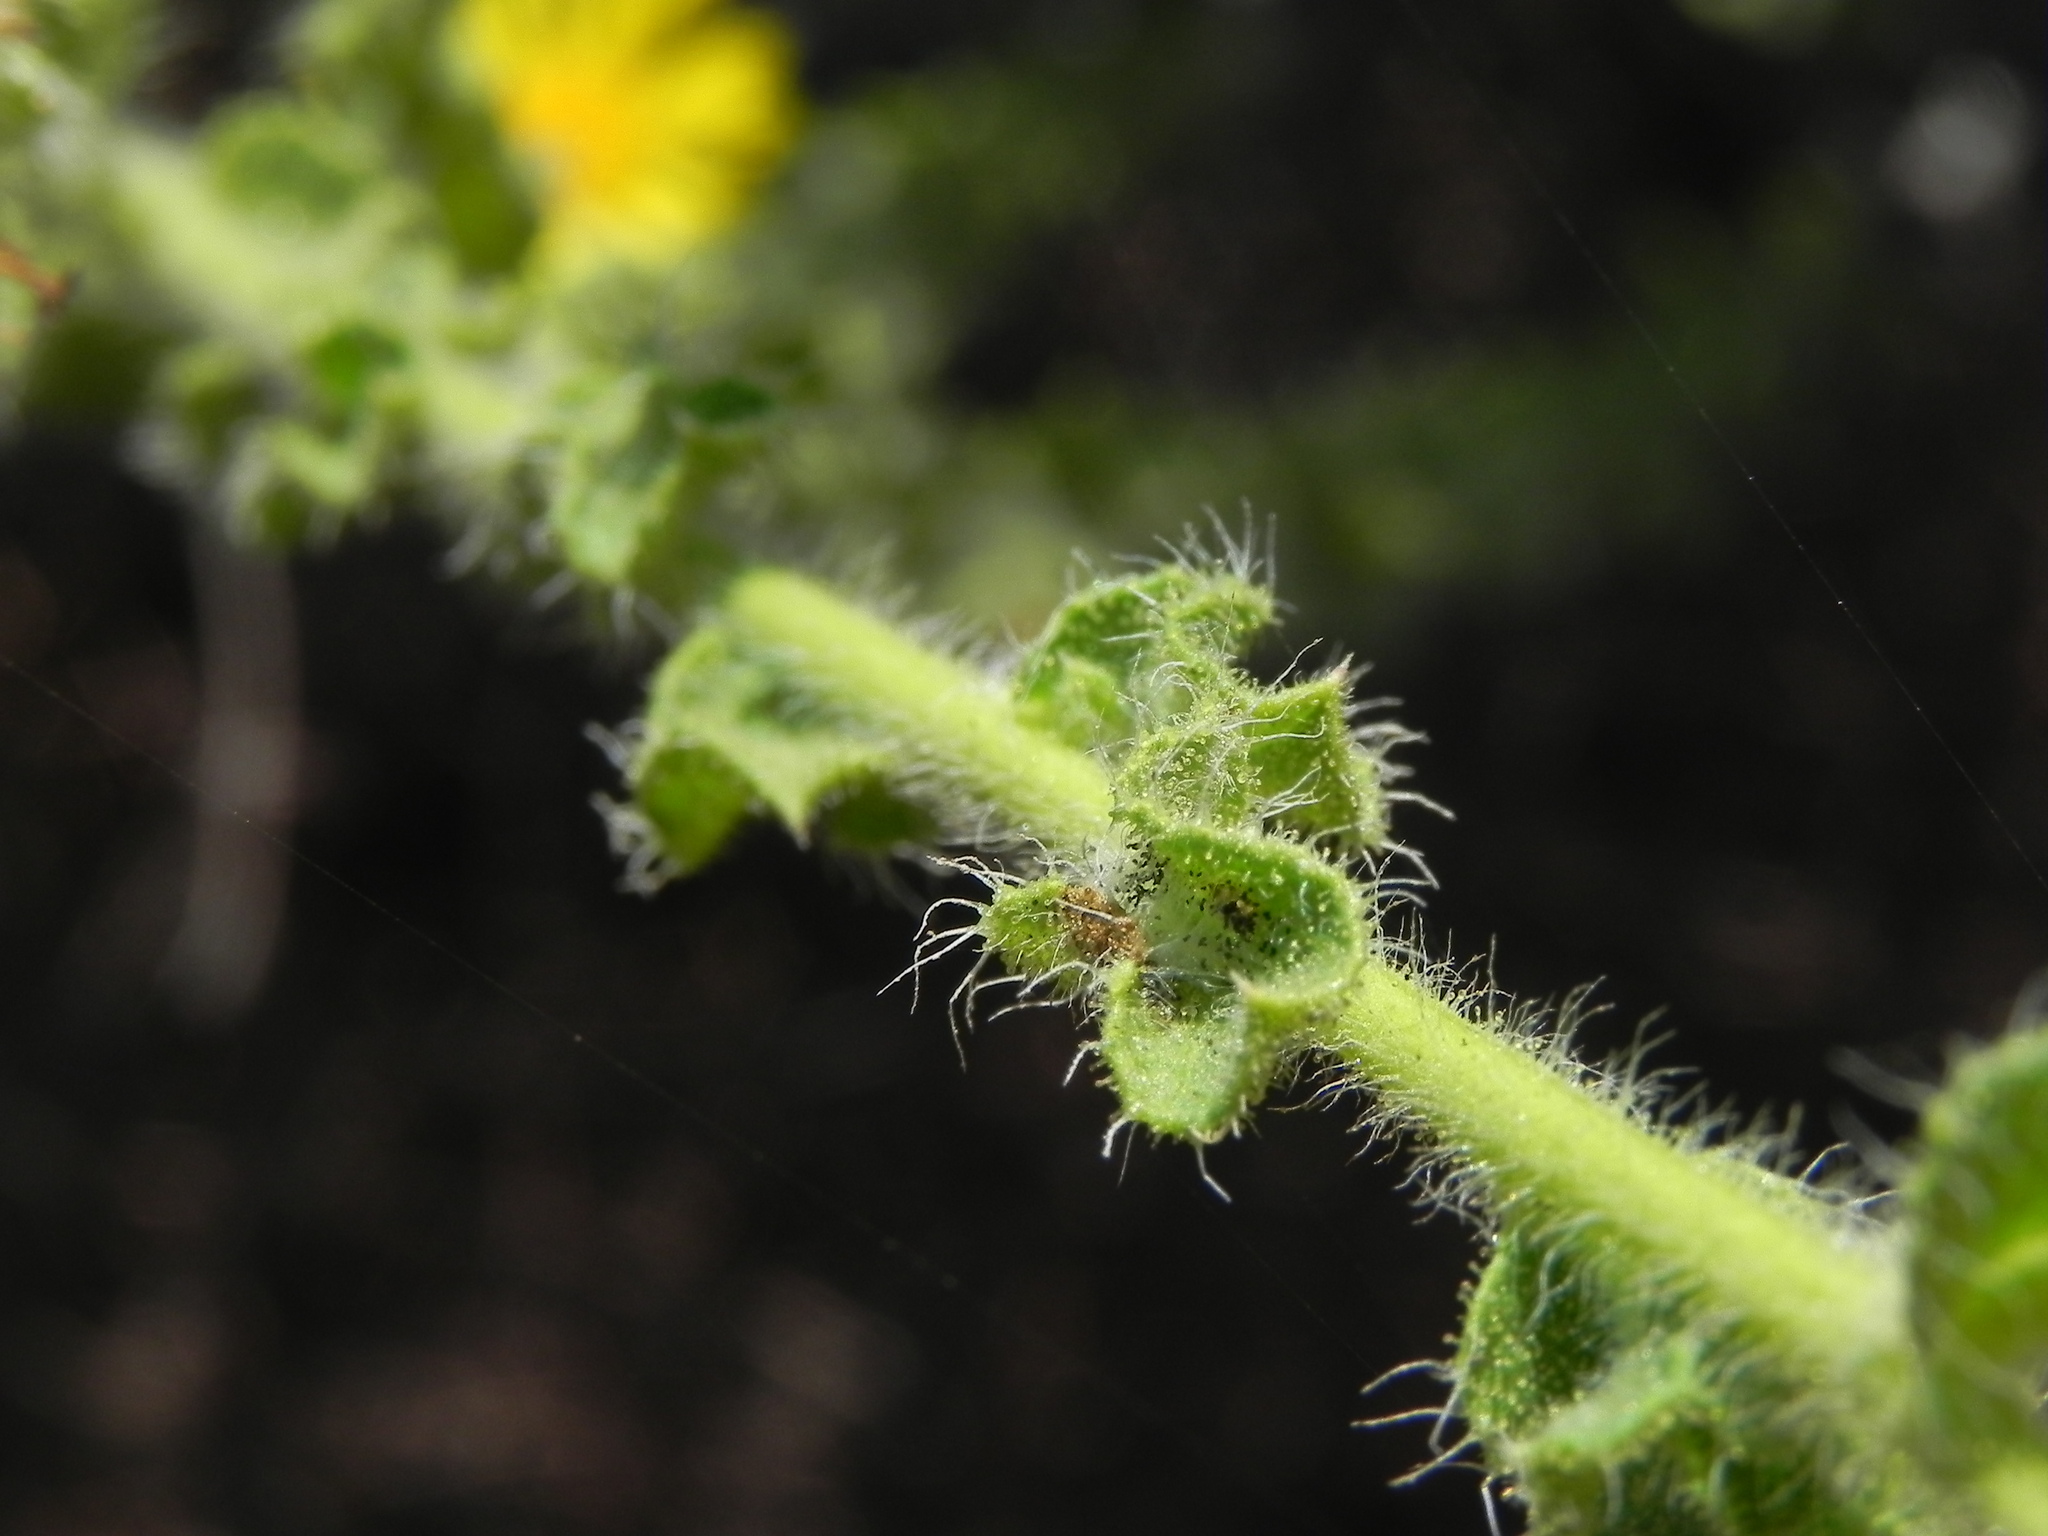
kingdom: Plantae
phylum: Tracheophyta
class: Magnoliopsida
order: Asterales
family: Asteraceae
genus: Heterotheca
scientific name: Heterotheca sessiliflora
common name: Sessile-flower golden-aster
